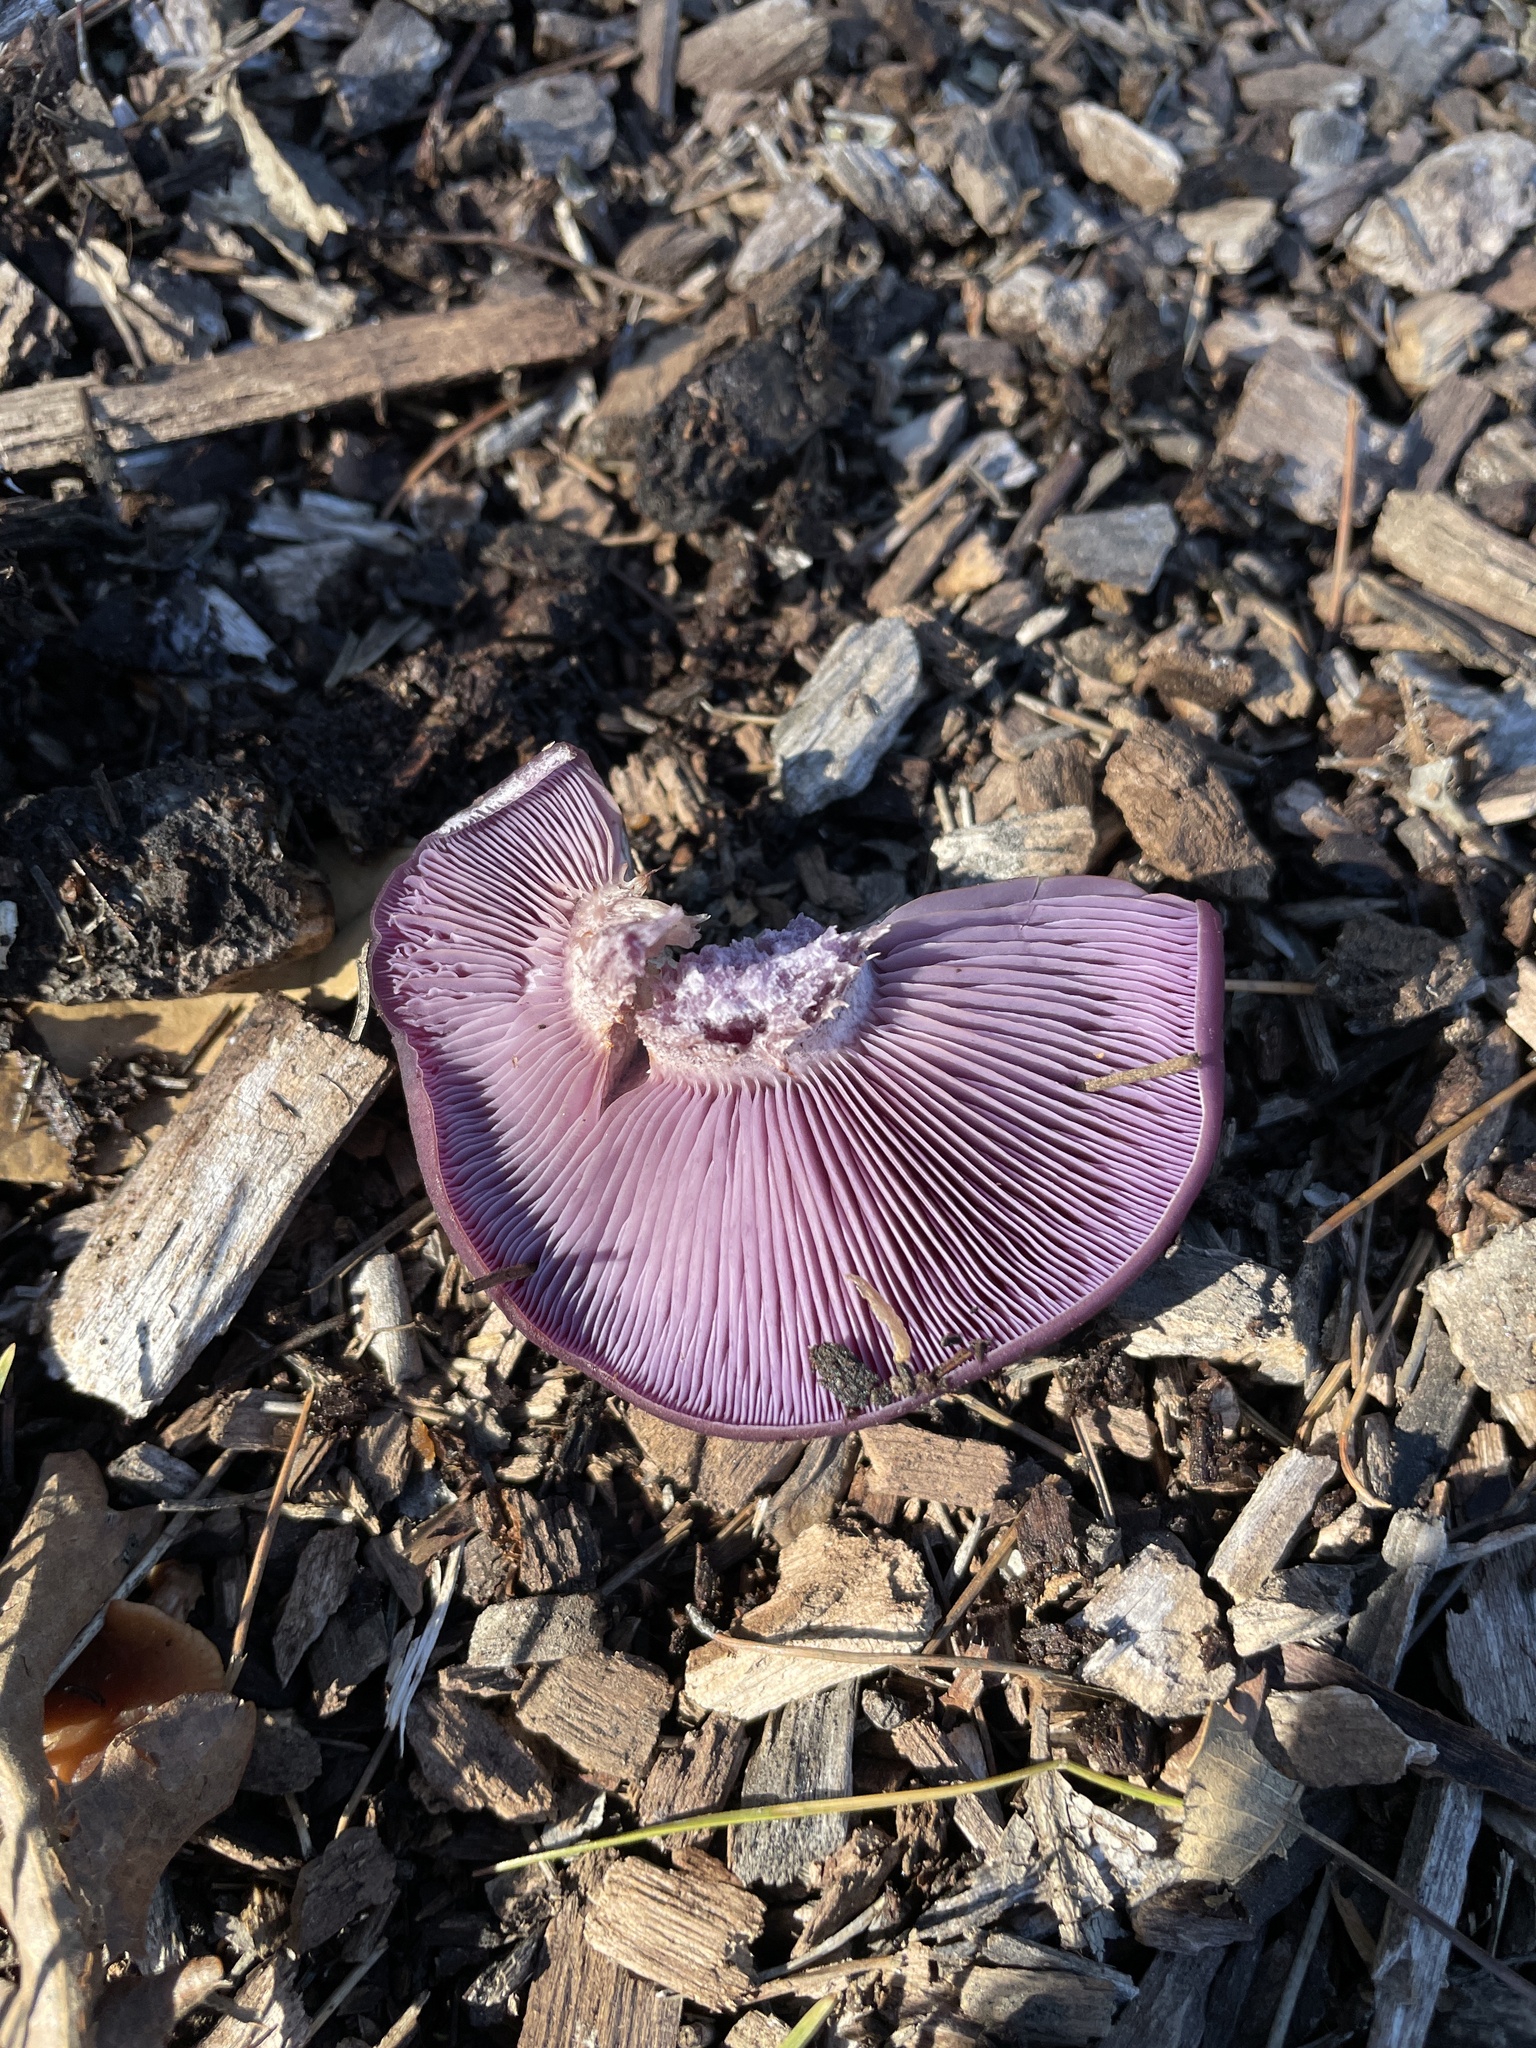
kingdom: Fungi
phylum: Basidiomycota
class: Agaricomycetes
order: Agaricales
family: Tricholomataceae
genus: Collybia
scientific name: Collybia
